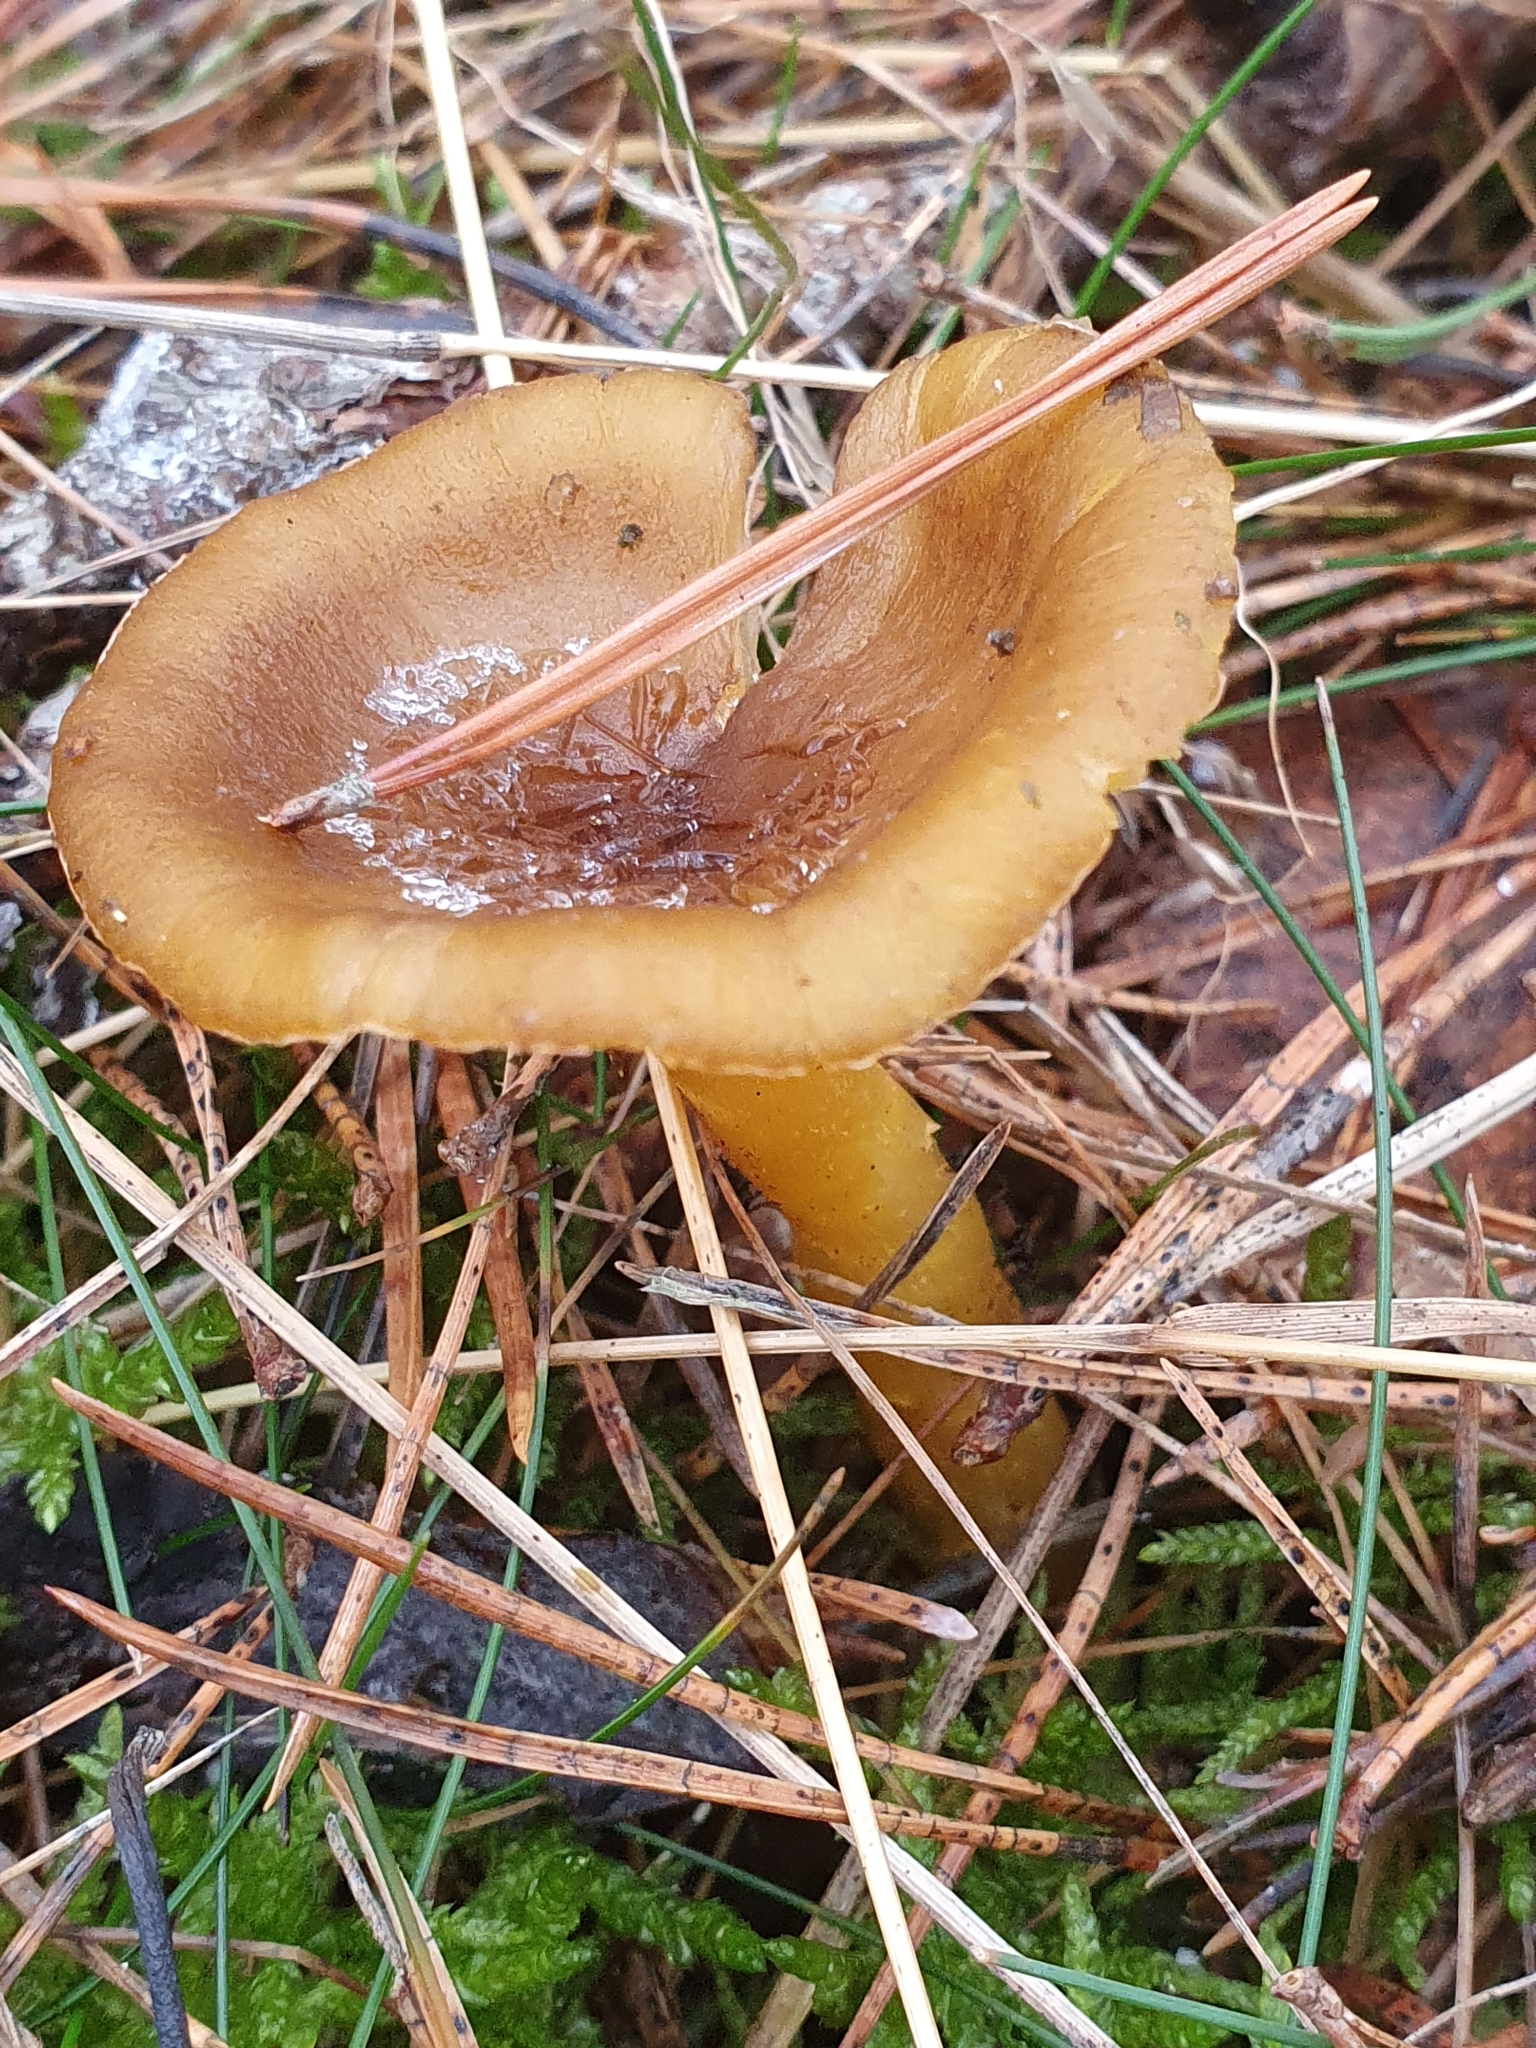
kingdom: Fungi
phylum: Basidiomycota
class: Agaricomycetes
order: Agaricales
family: Hygrophoraceae
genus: Hygrophorus
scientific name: Hygrophorus hypothejus
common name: Herald of winter
